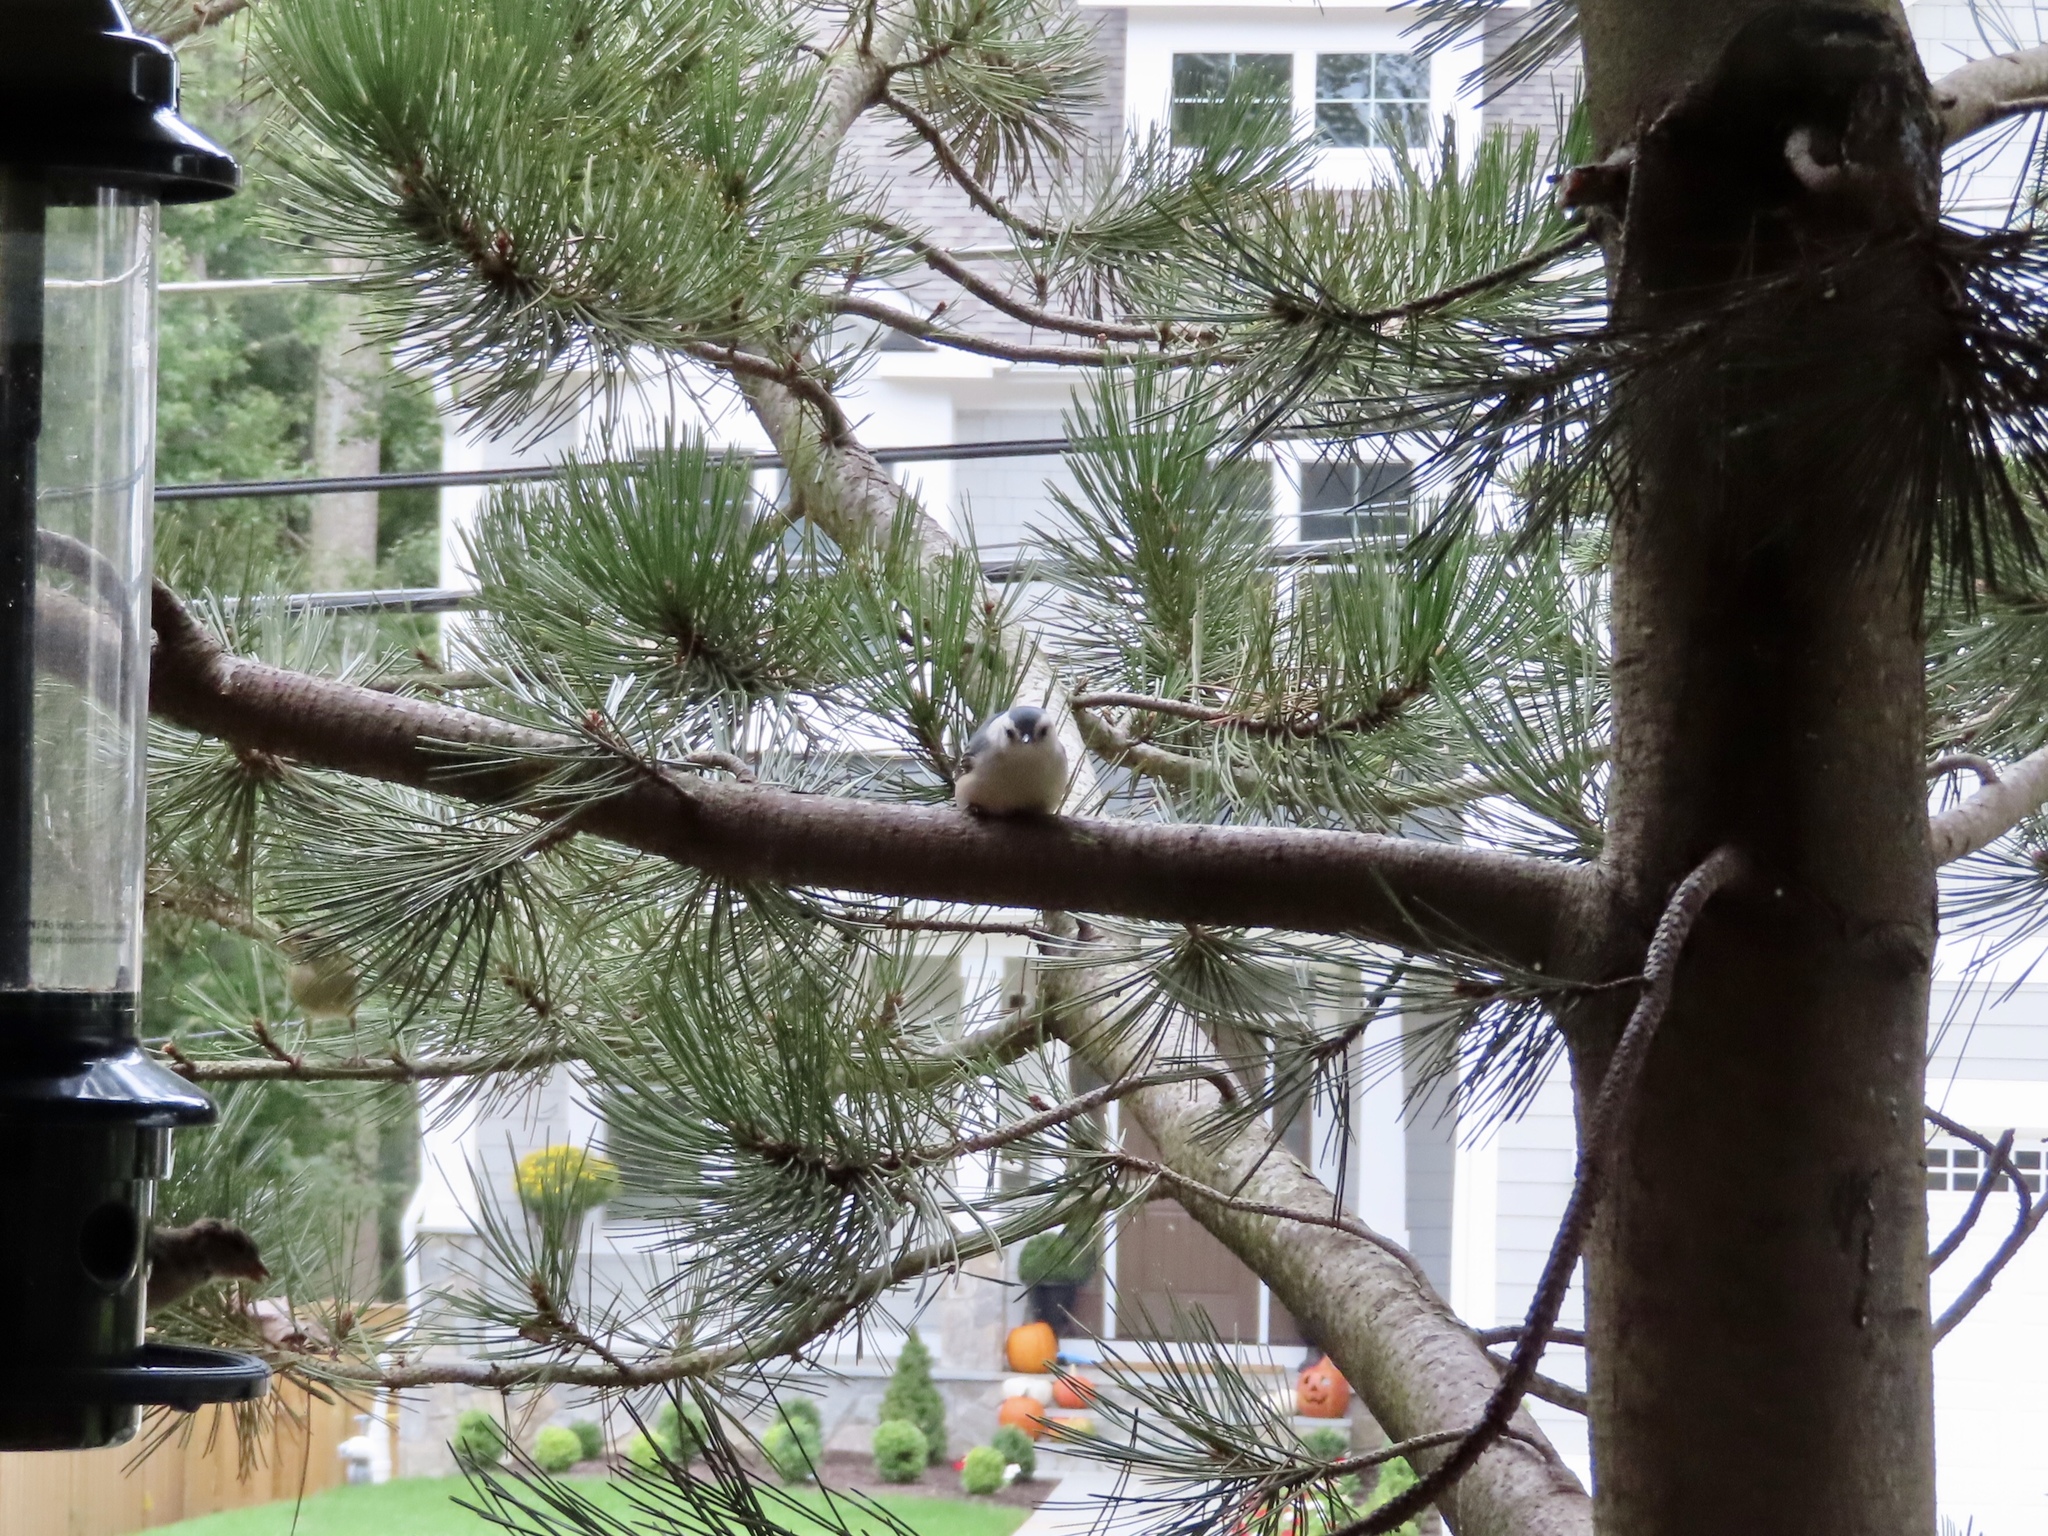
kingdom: Animalia
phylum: Chordata
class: Aves
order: Passeriformes
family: Sittidae
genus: Sitta
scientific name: Sitta carolinensis
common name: White-breasted nuthatch
